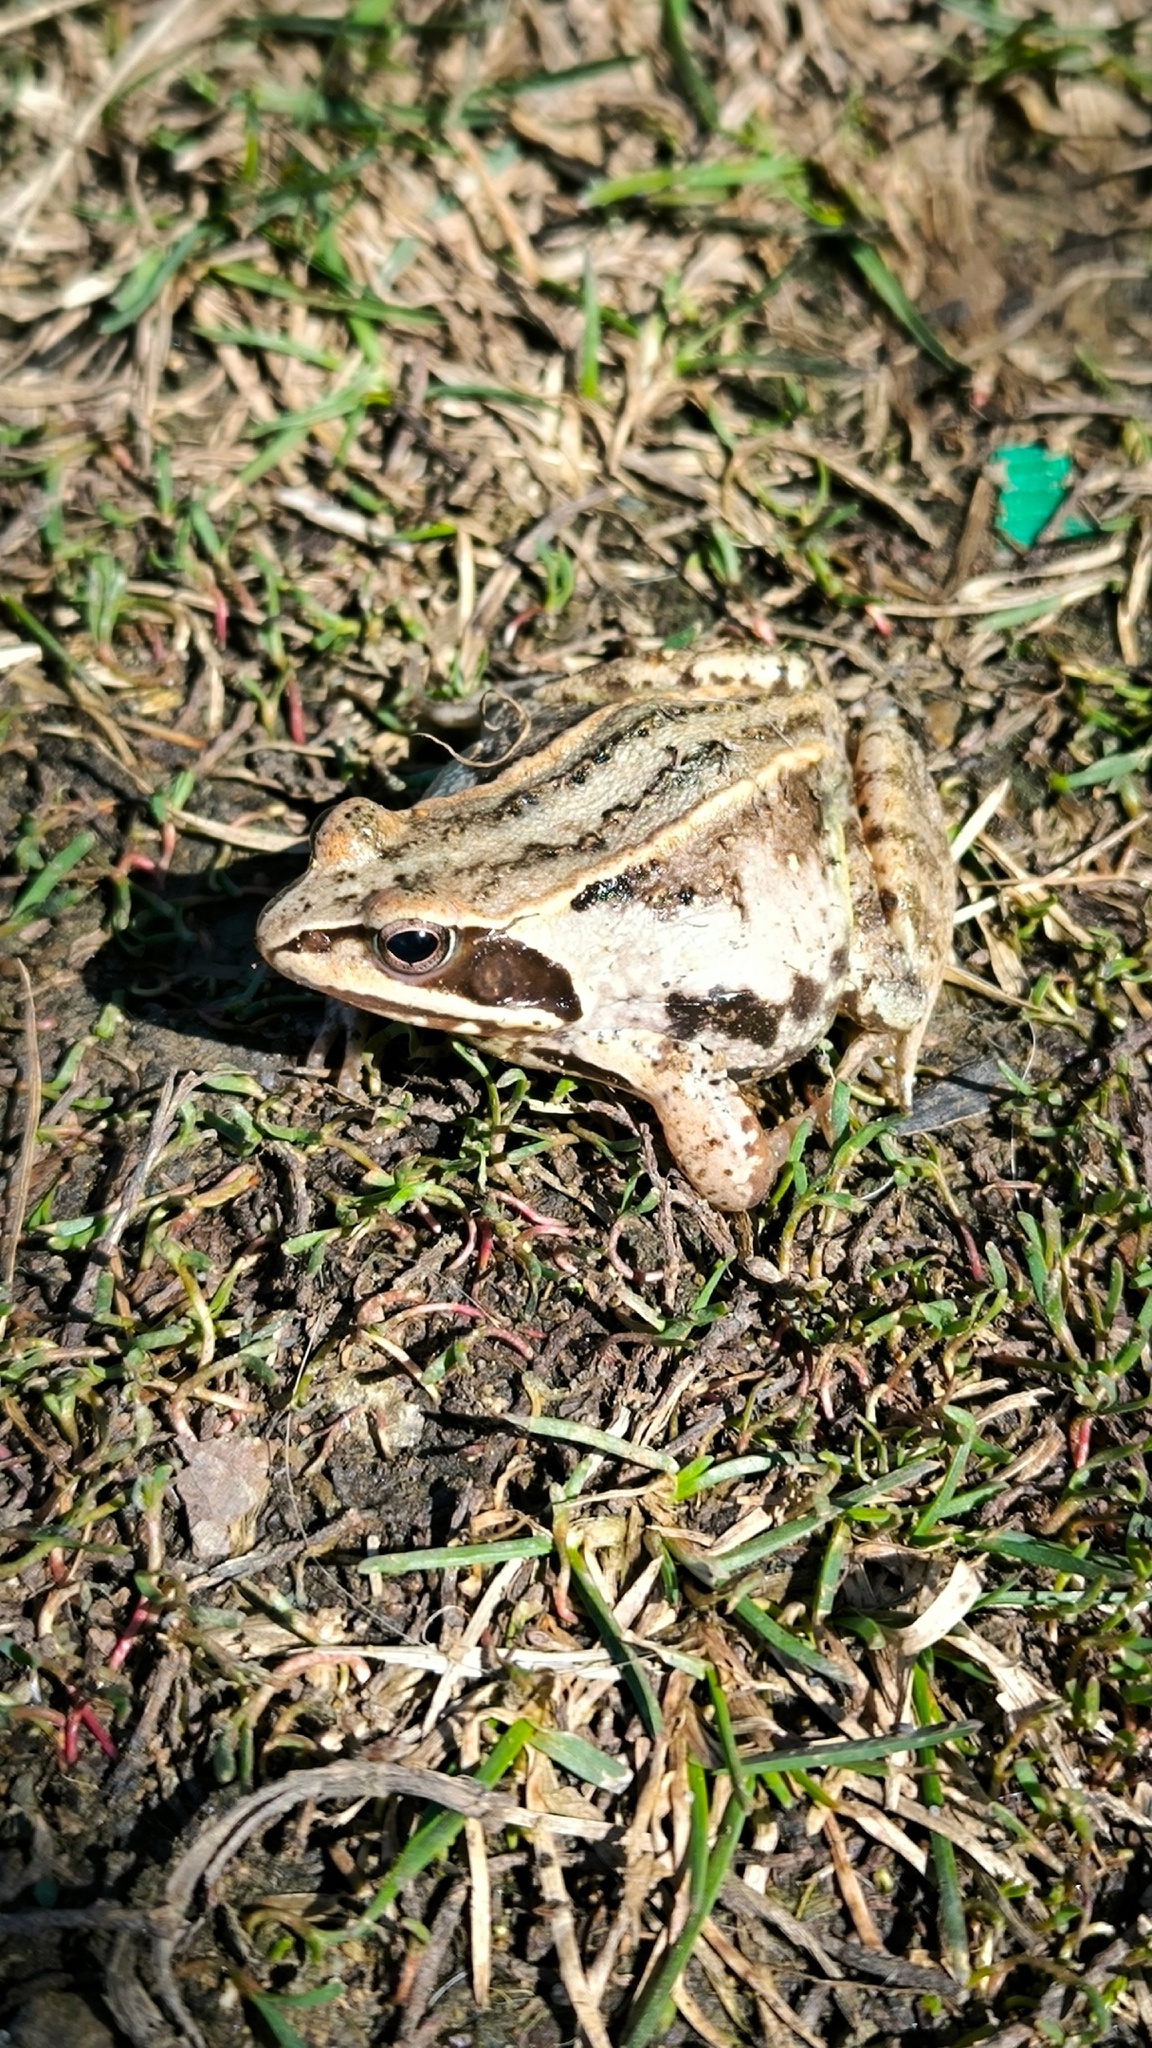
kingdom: Animalia
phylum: Chordata
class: Amphibia
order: Anura
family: Ranidae
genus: Rana
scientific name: Rana arvalis
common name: Moor frog
